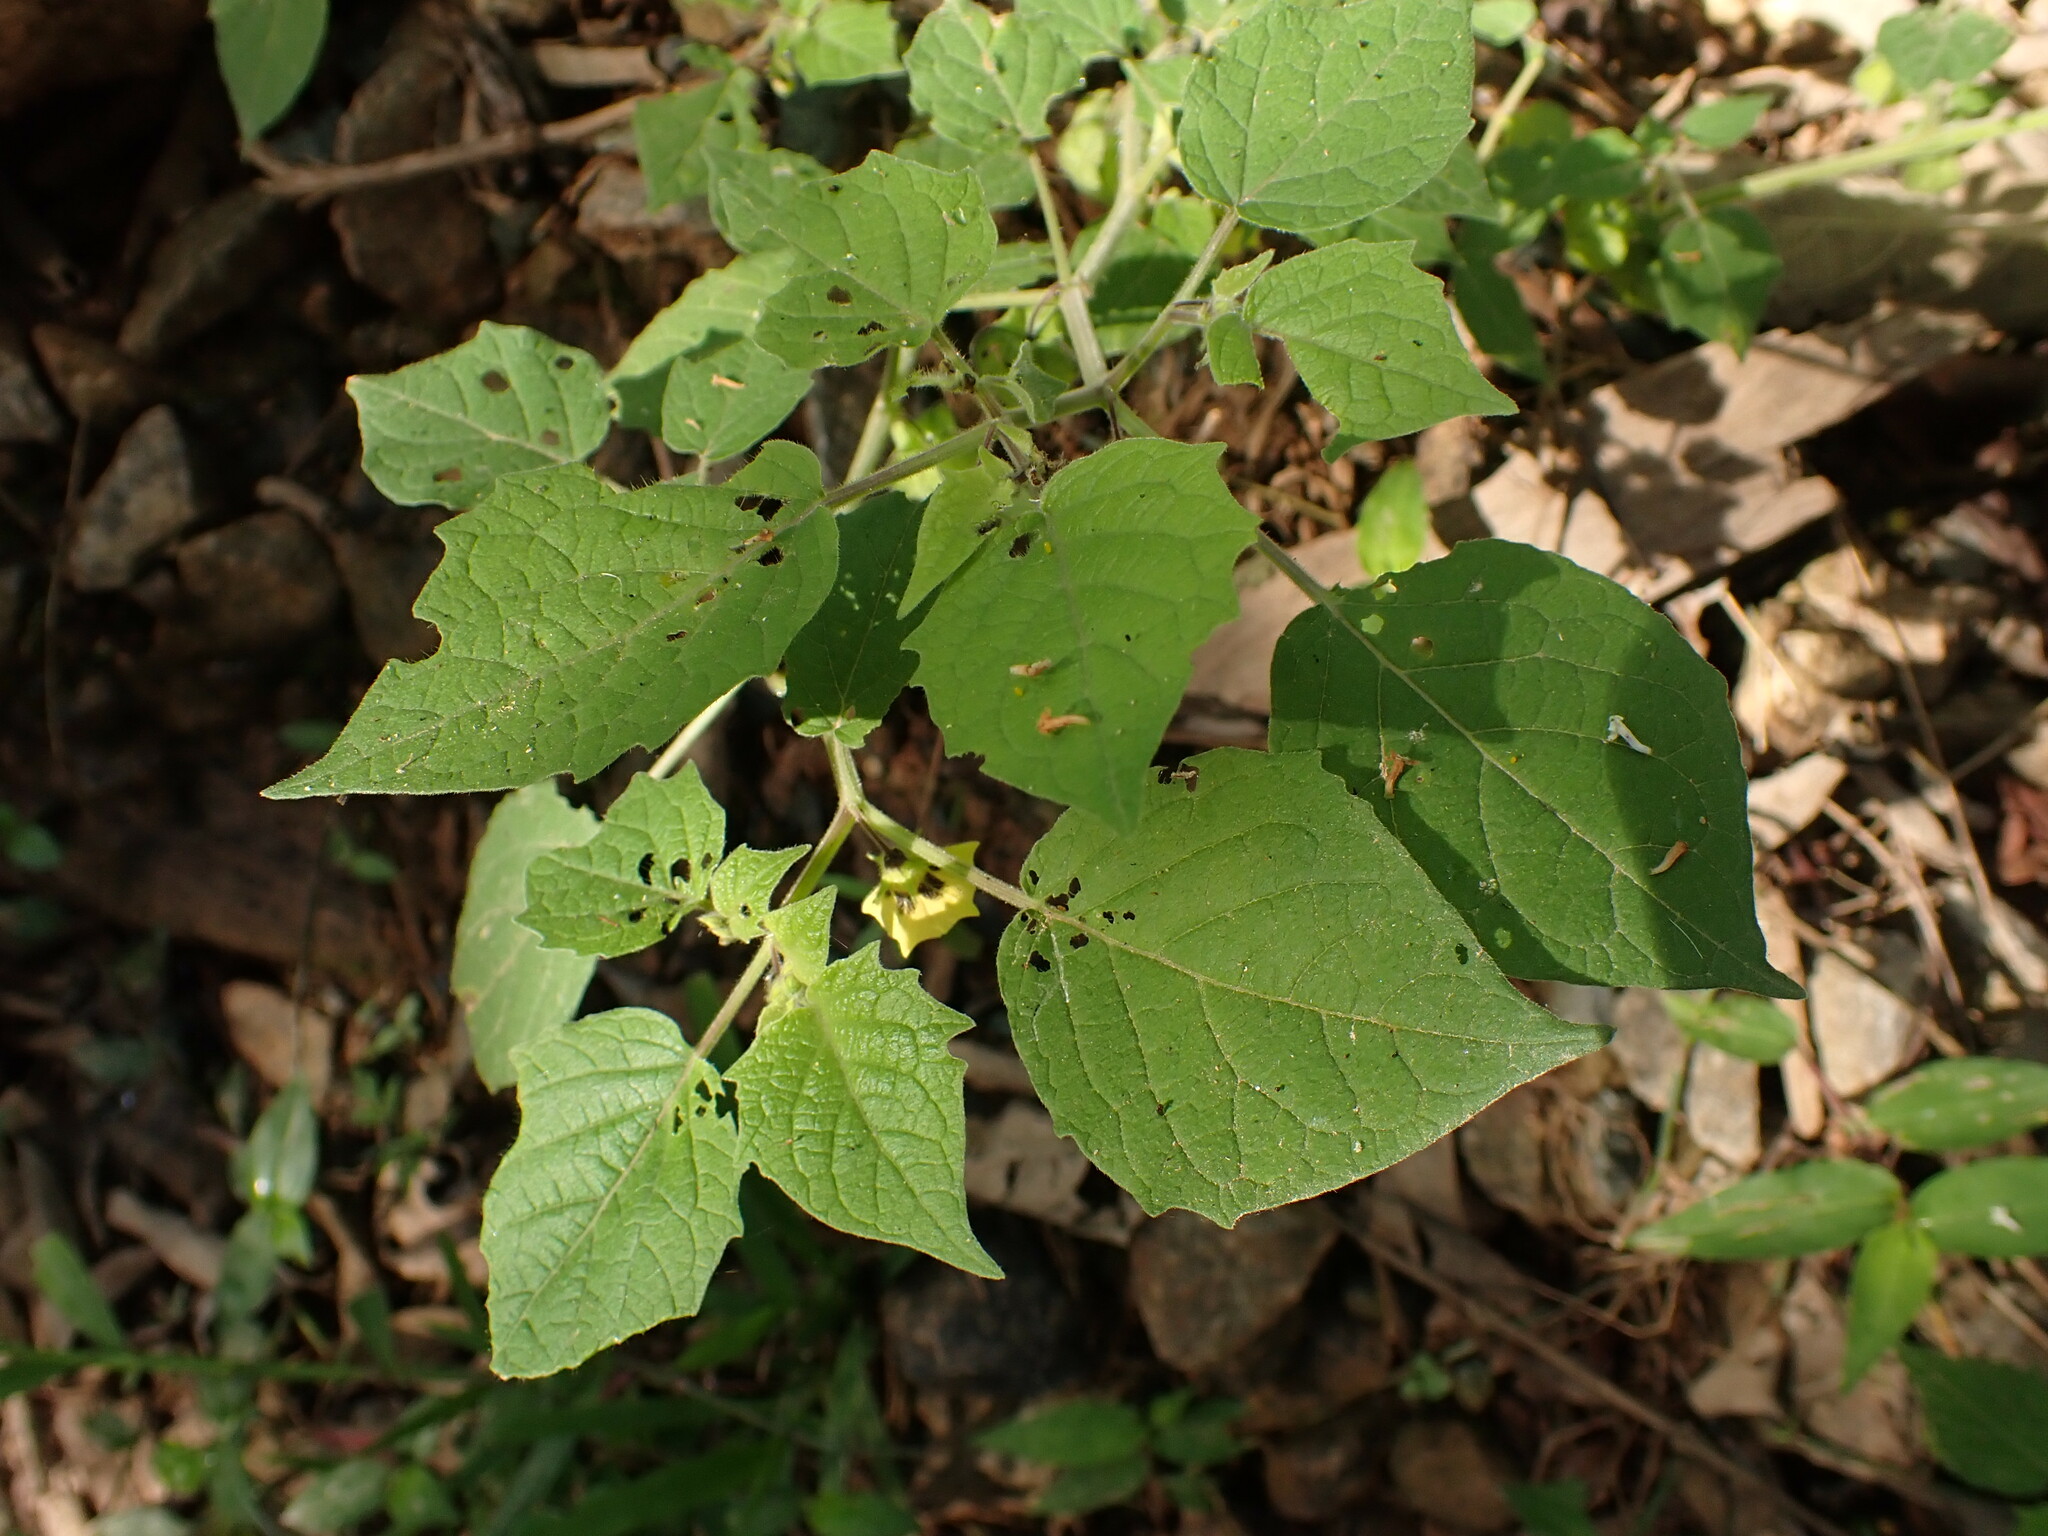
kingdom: Plantae
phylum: Tracheophyta
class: Magnoliopsida
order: Solanales
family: Solanaceae
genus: Physalis
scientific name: Physalis pubescens
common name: Downy ground-cherry
